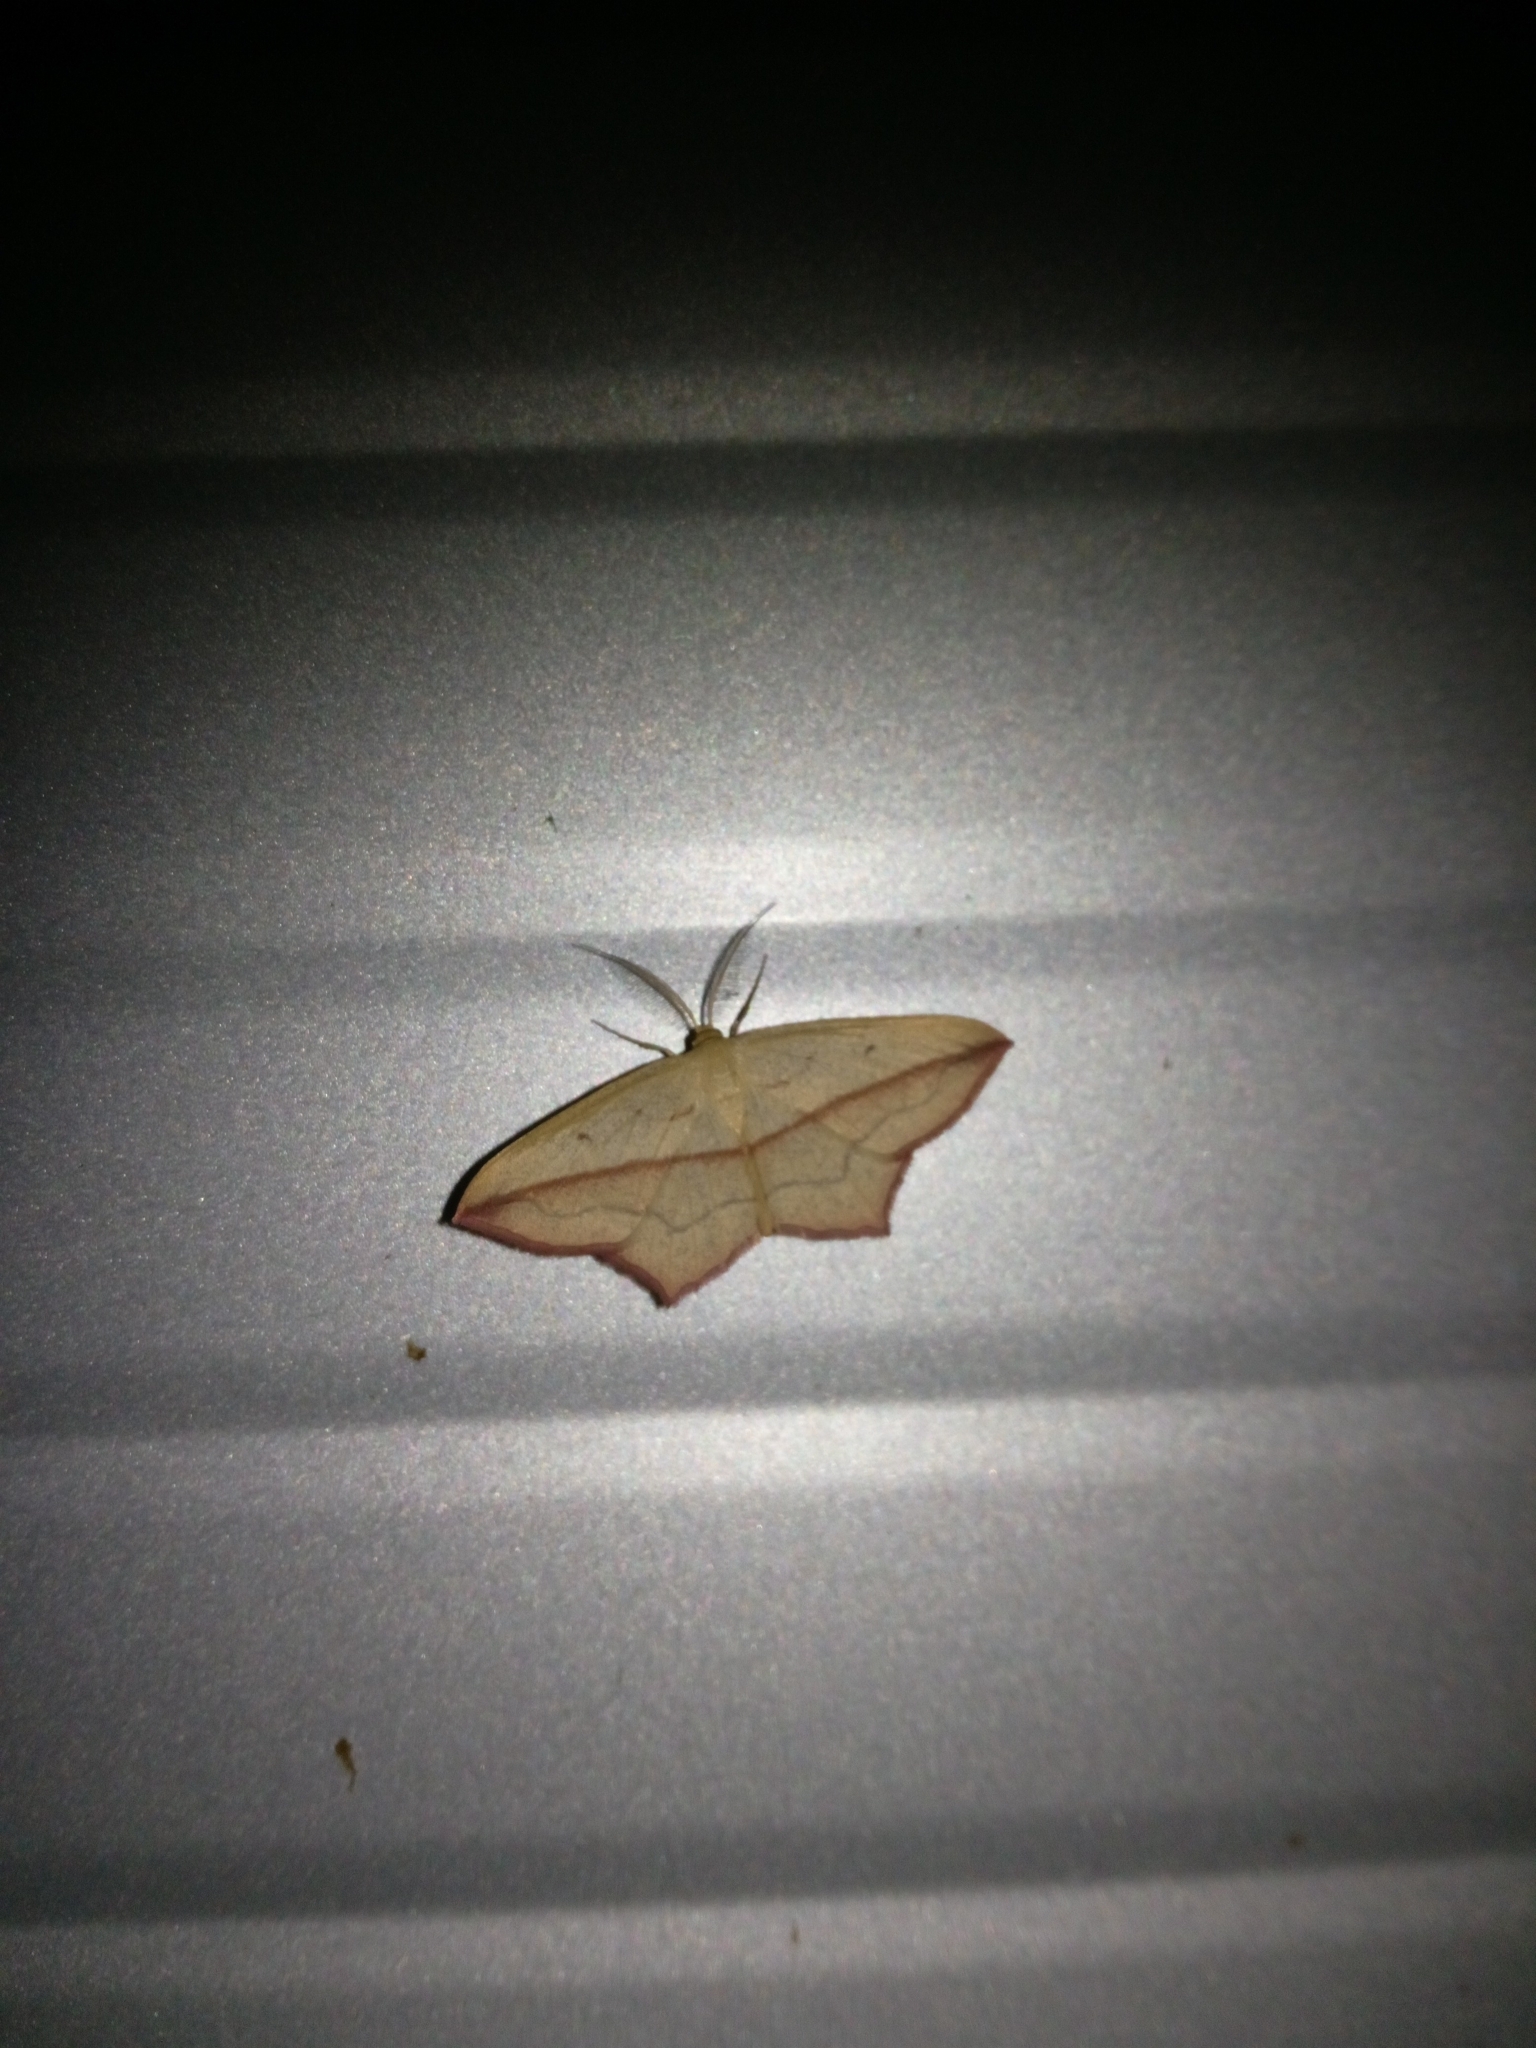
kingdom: Animalia
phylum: Arthropoda
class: Insecta
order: Lepidoptera
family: Geometridae
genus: Timandra
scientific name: Timandra comae
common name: Blood-vein
